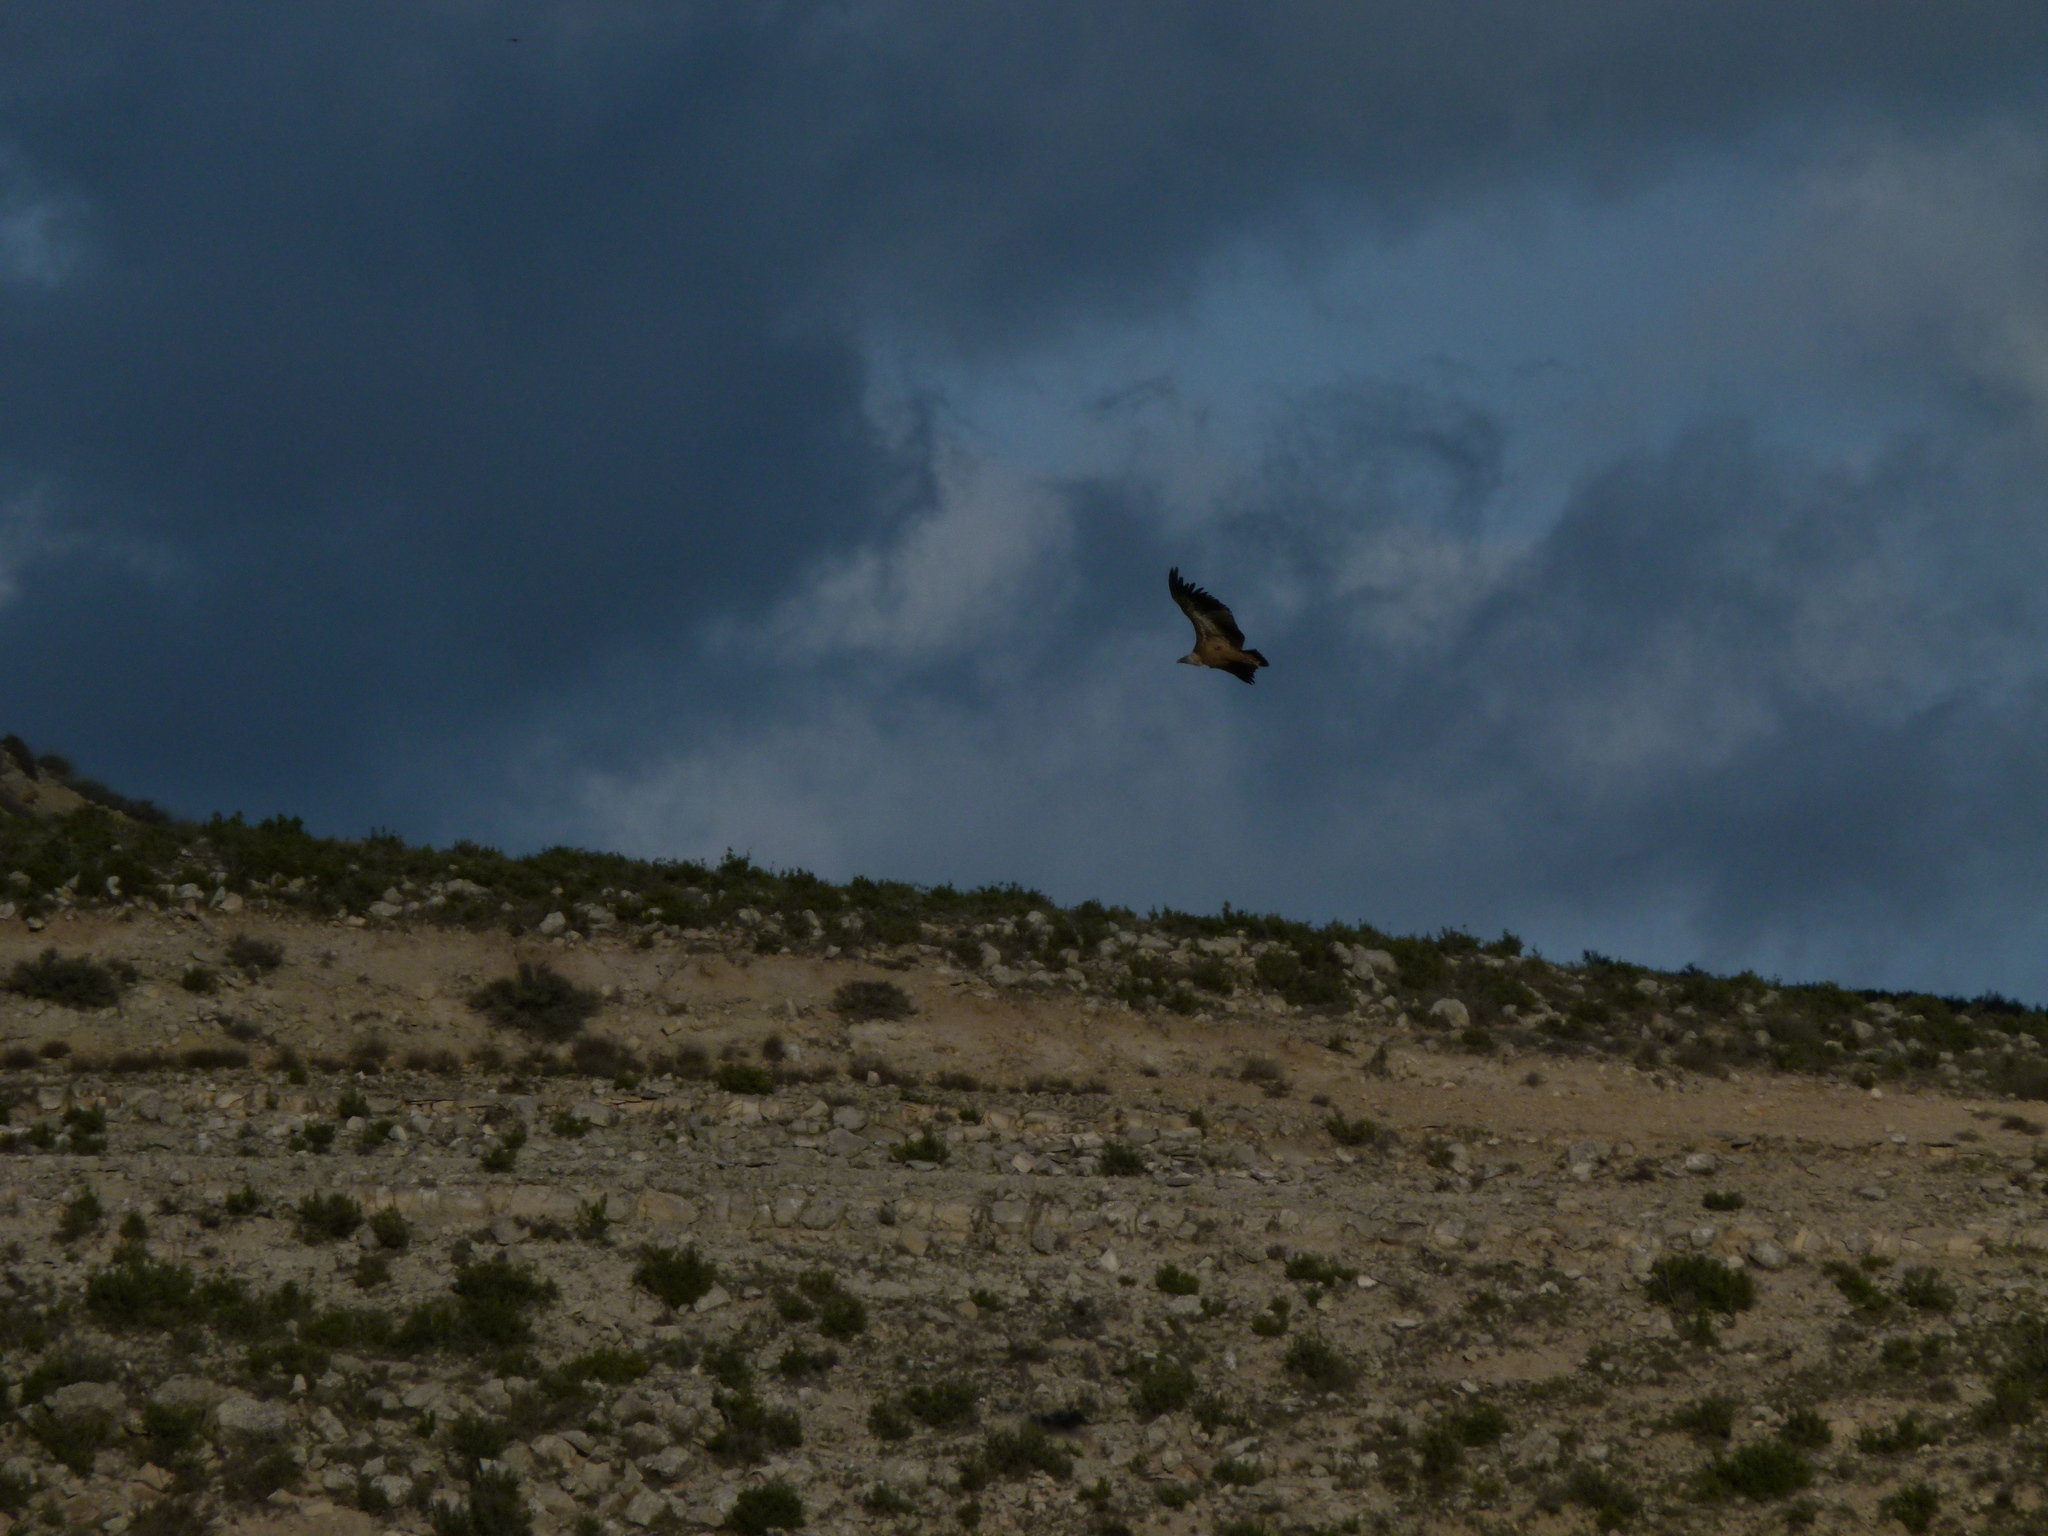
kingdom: Animalia
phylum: Chordata
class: Aves
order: Accipitriformes
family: Accipitridae
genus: Gyps
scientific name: Gyps fulvus
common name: Griffon vulture
